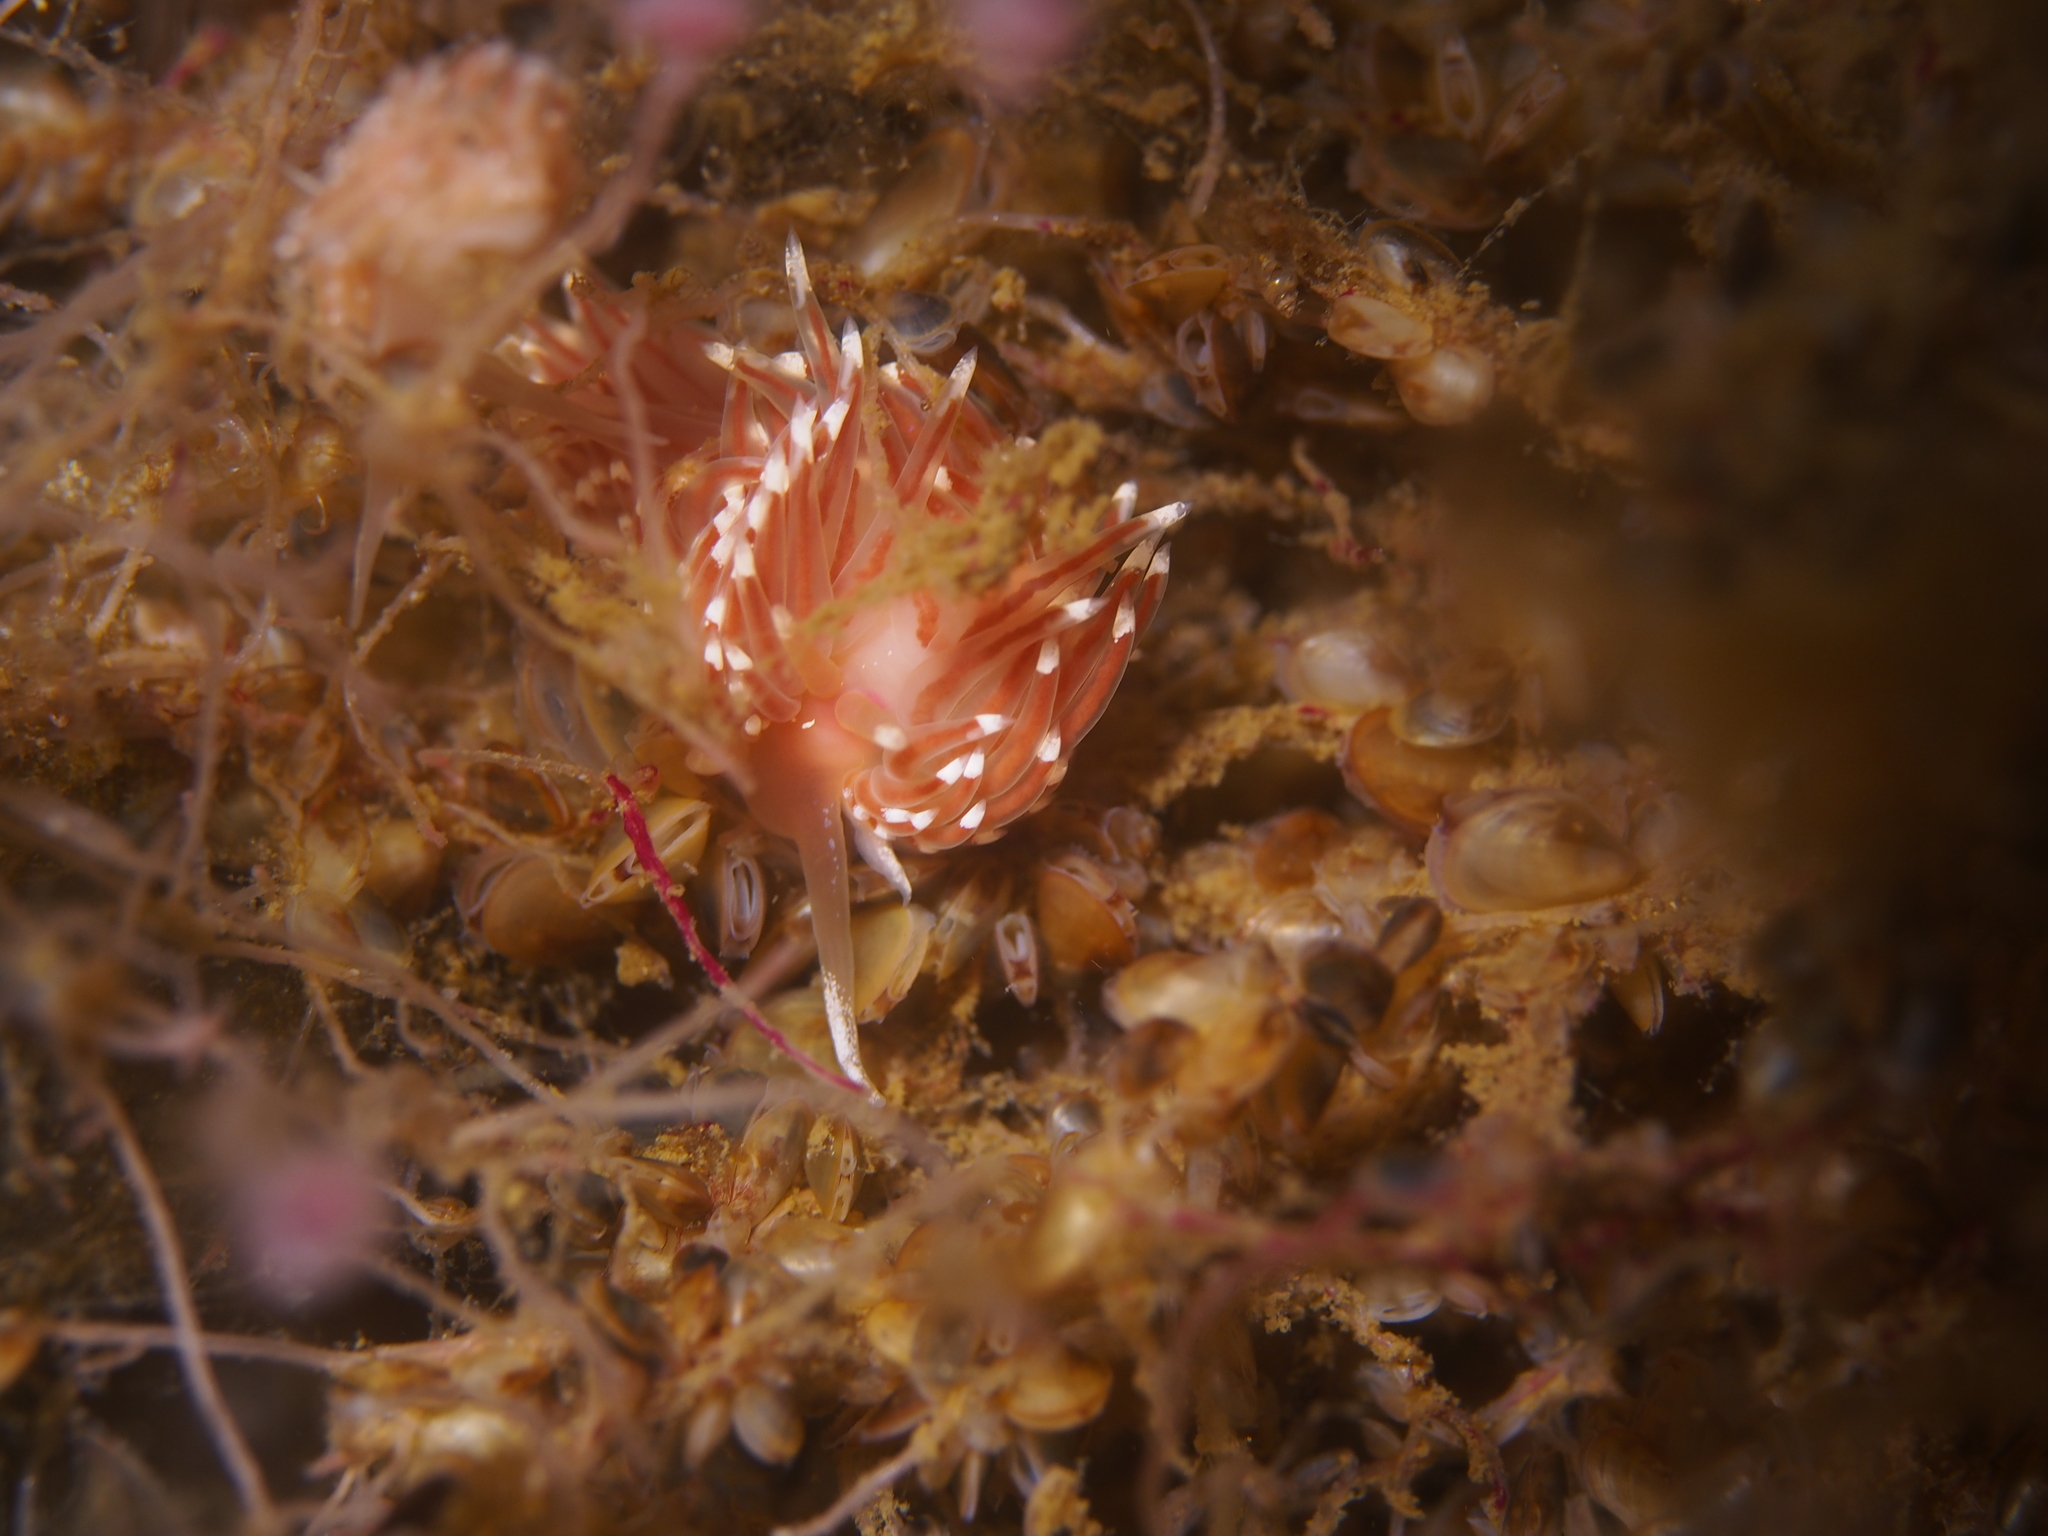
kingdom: Animalia
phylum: Mollusca
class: Gastropoda
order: Nudibranchia
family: Facelinidae
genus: Facelina
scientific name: Facelina bostoniensis
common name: Boston facelina
